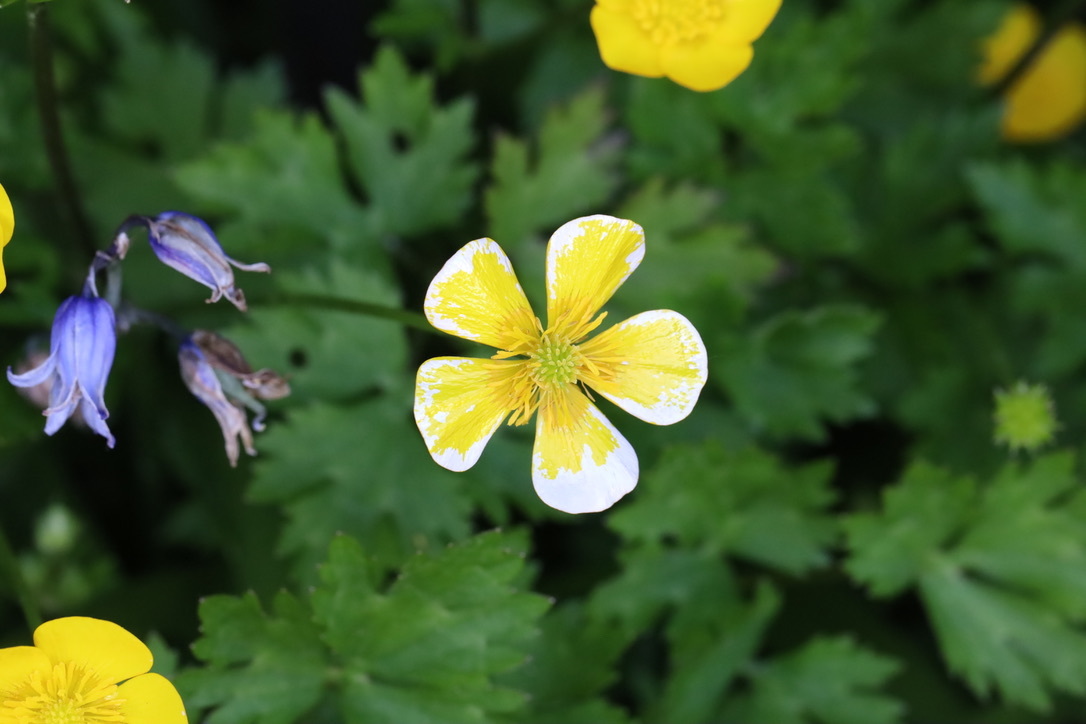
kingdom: Plantae
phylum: Tracheophyta
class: Magnoliopsida
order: Ranunculales
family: Ranunculaceae
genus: Ranunculus
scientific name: Ranunculus repens
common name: Creeping buttercup
